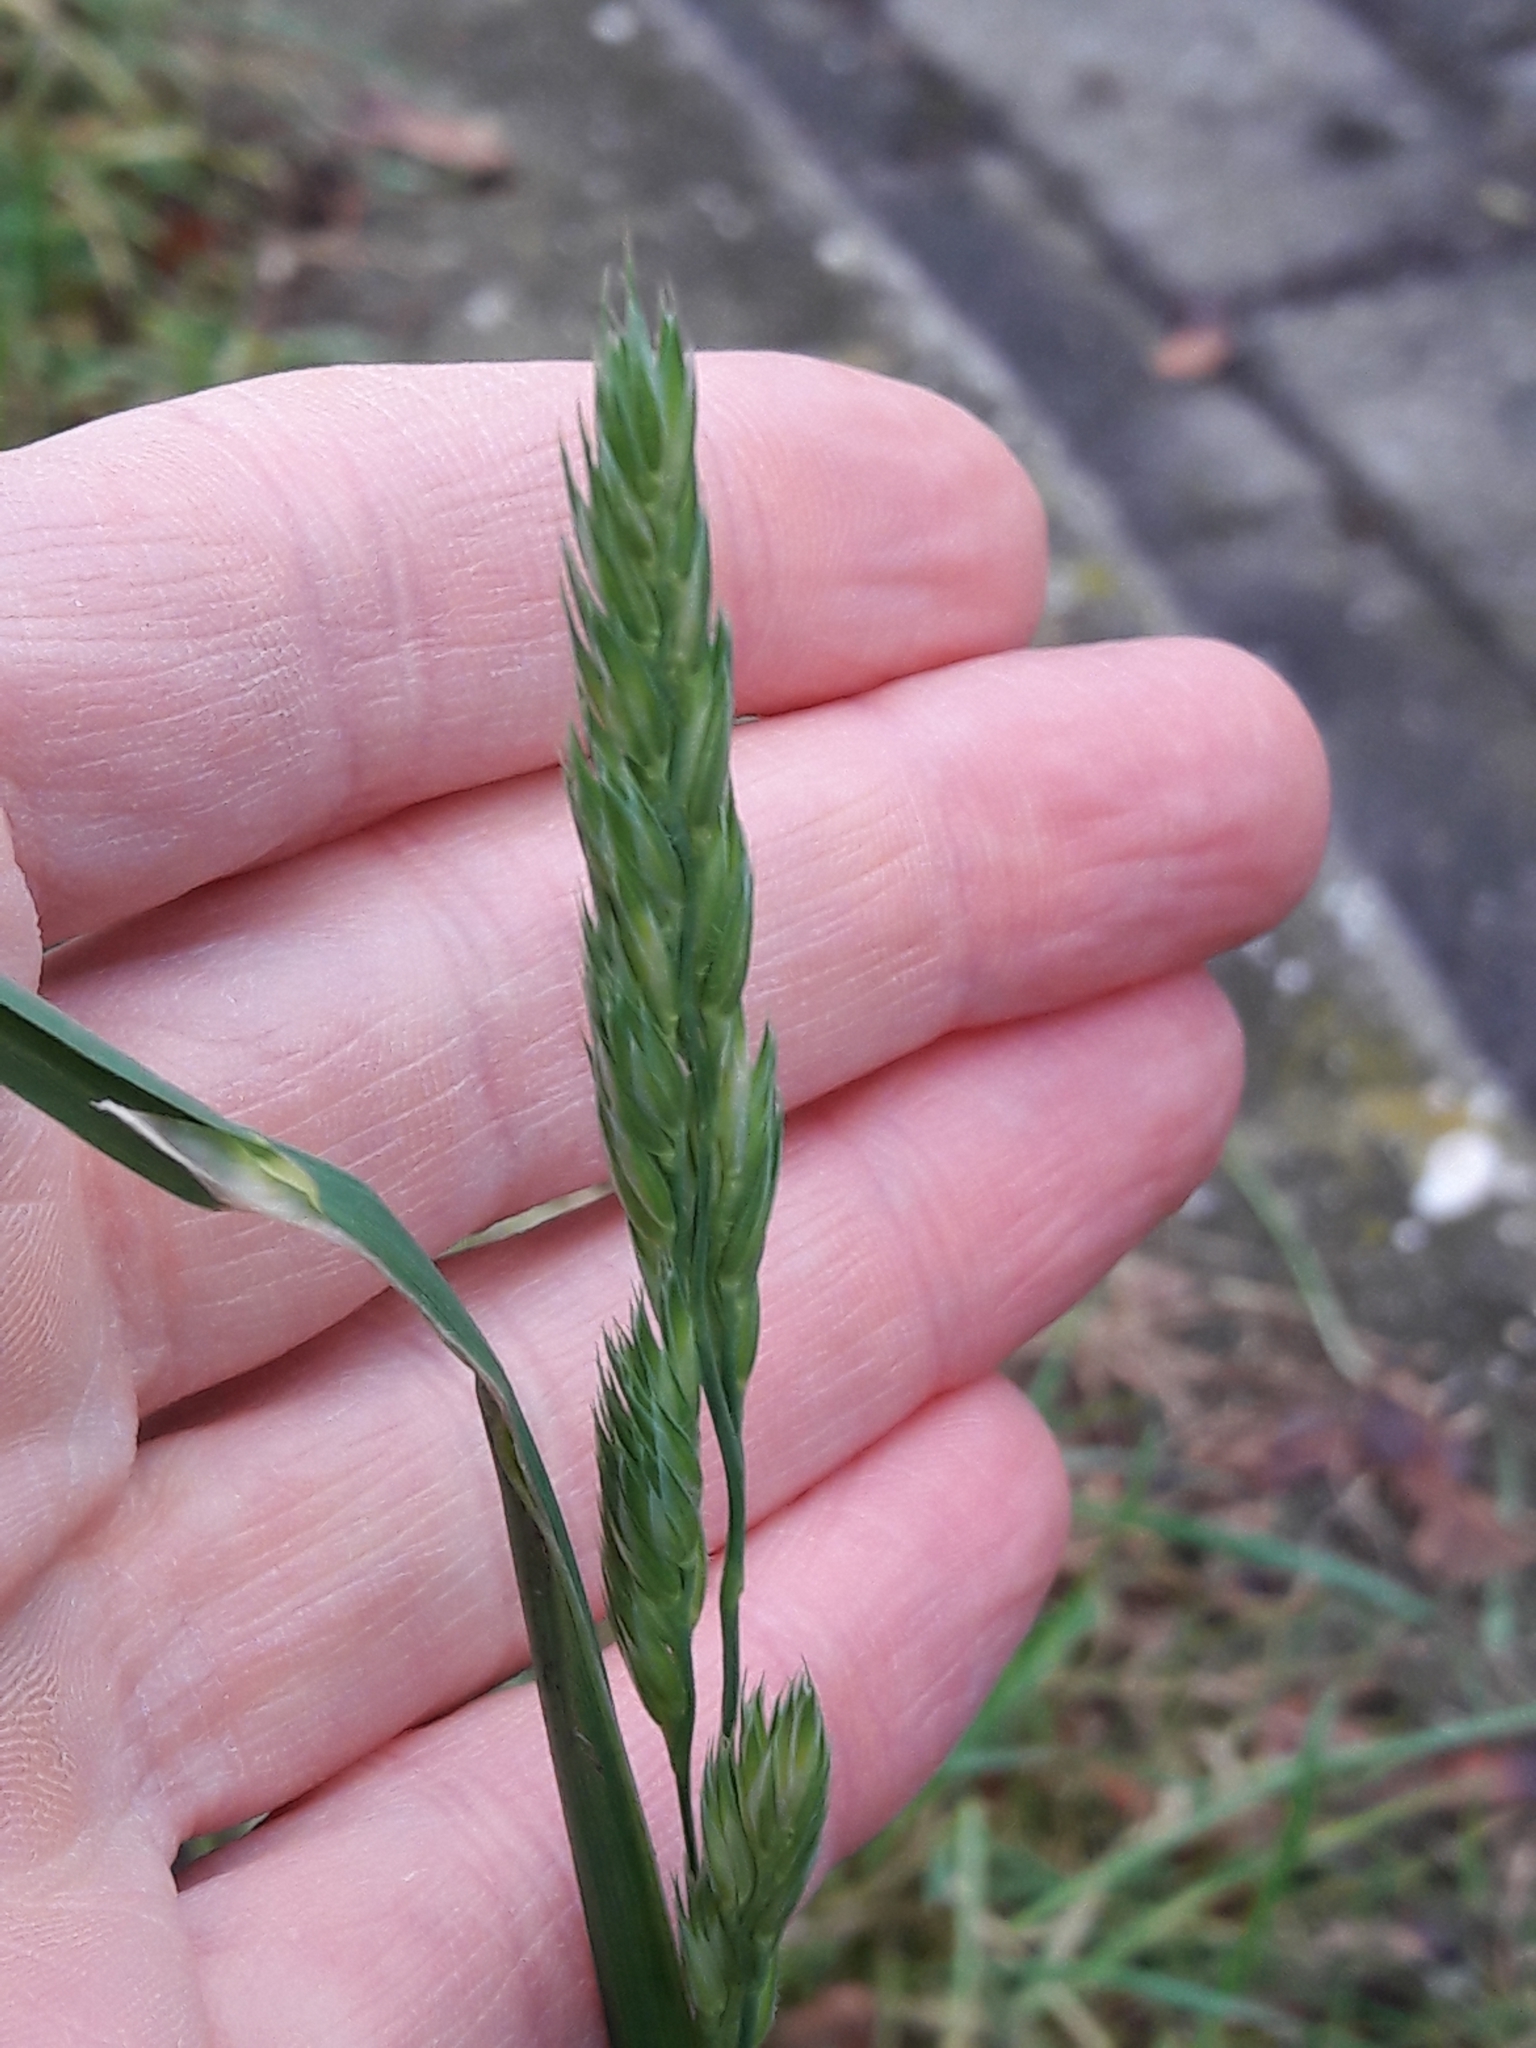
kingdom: Plantae
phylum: Tracheophyta
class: Liliopsida
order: Poales
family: Poaceae
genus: Dactylis
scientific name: Dactylis glomerata
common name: Orchardgrass
